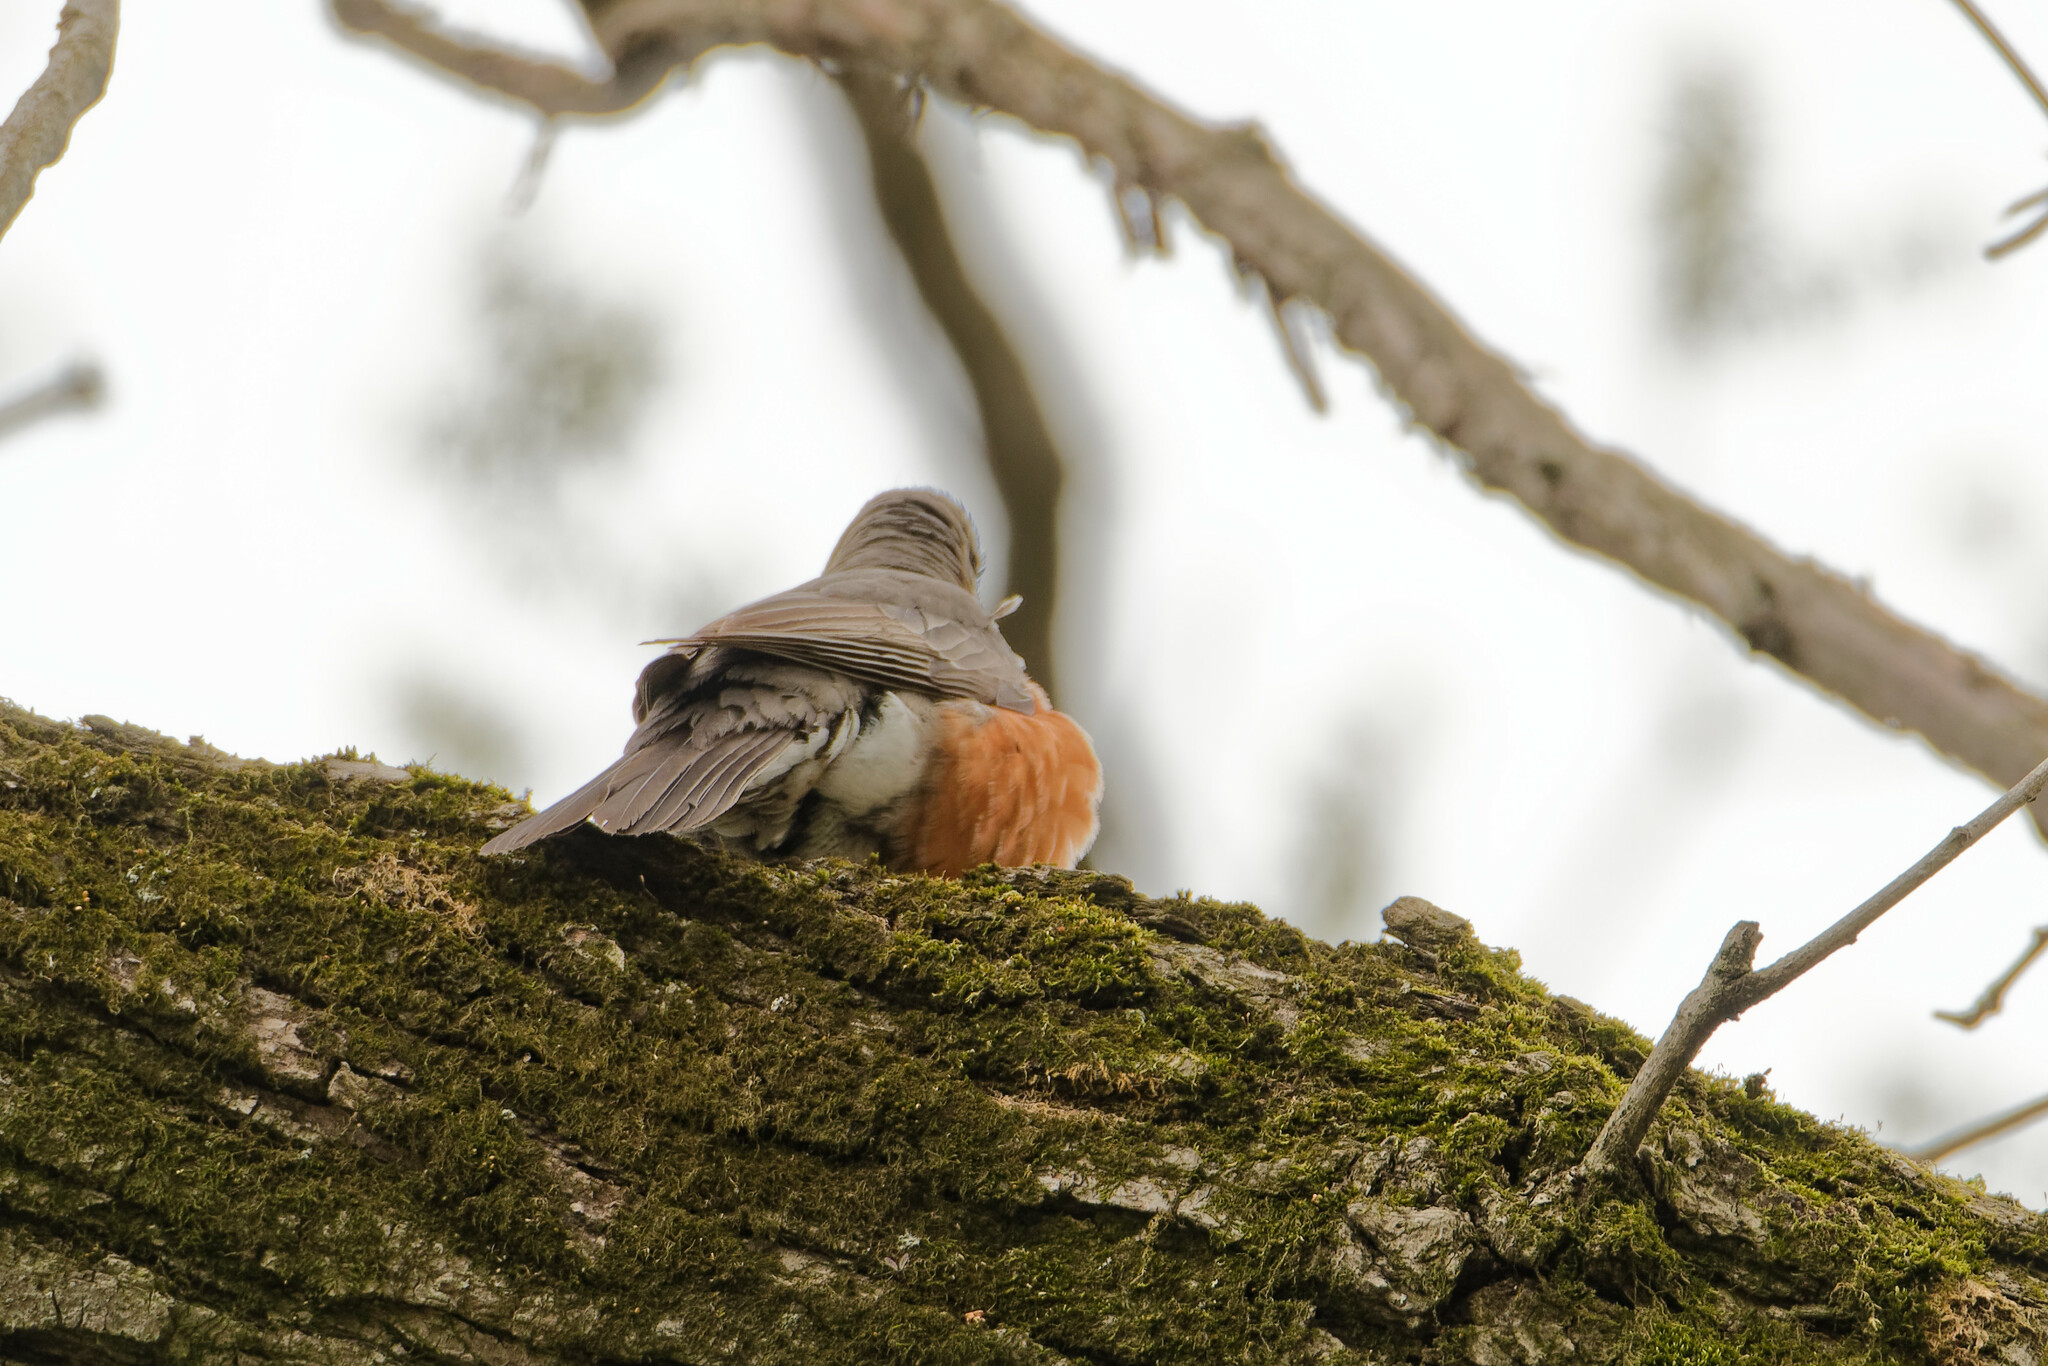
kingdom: Animalia
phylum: Chordata
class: Aves
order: Passeriformes
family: Turdidae
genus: Turdus
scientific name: Turdus migratorius
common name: American robin
